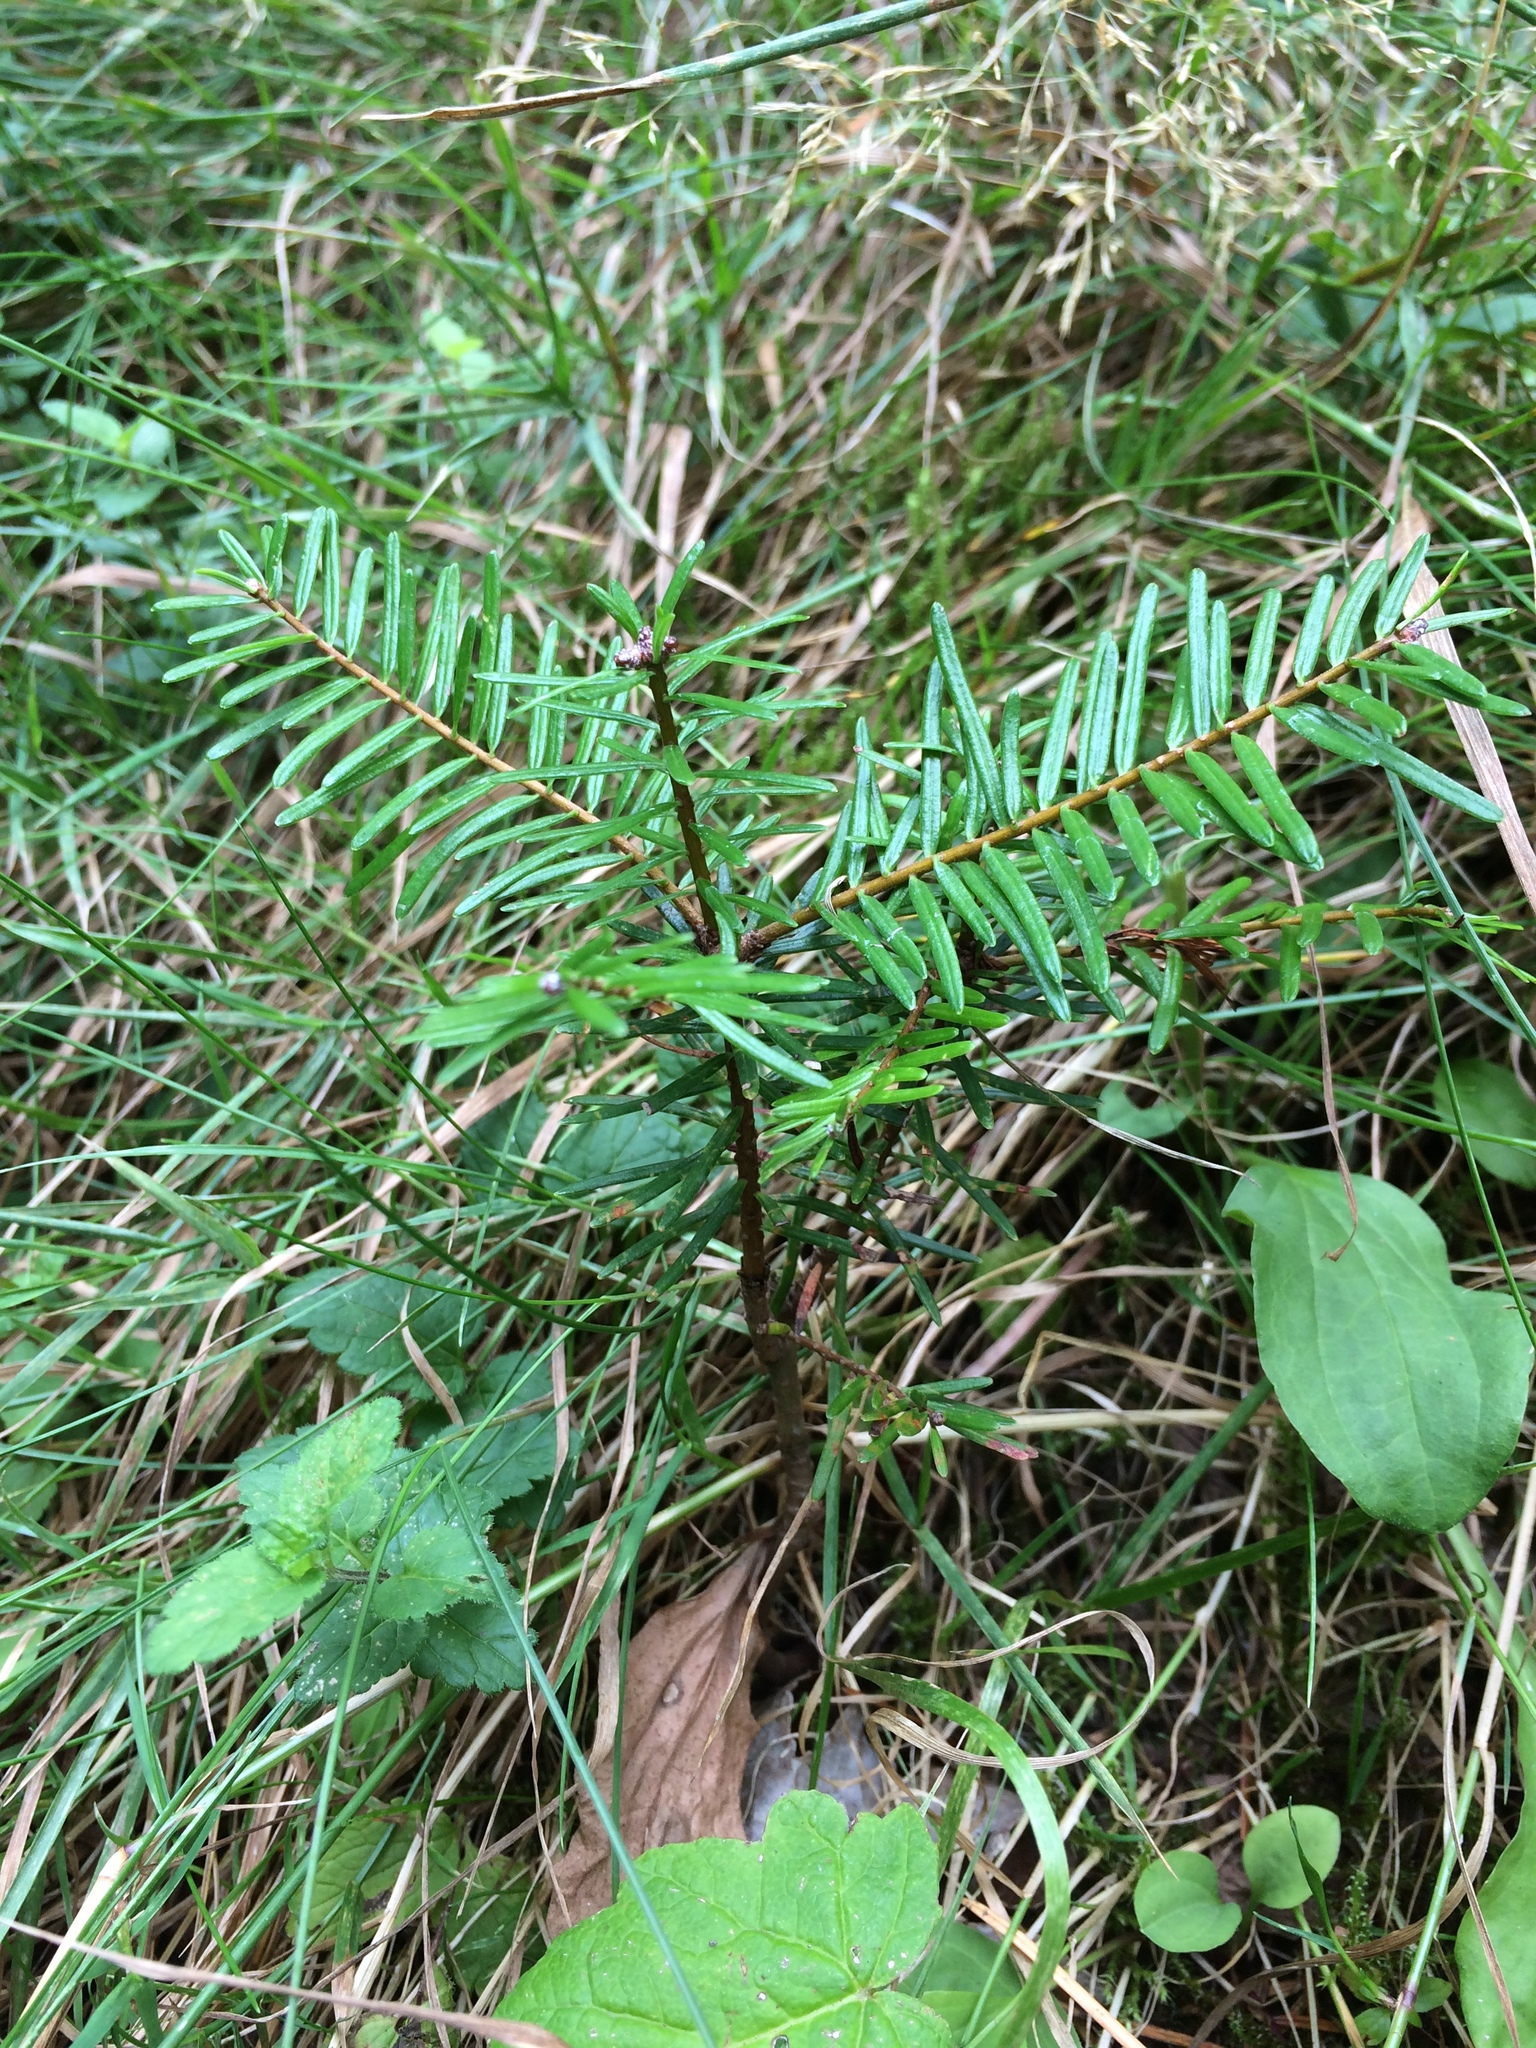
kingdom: Plantae
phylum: Tracheophyta
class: Pinopsida
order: Pinales
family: Pinaceae
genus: Abies
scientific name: Abies grandis
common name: Giant fir
